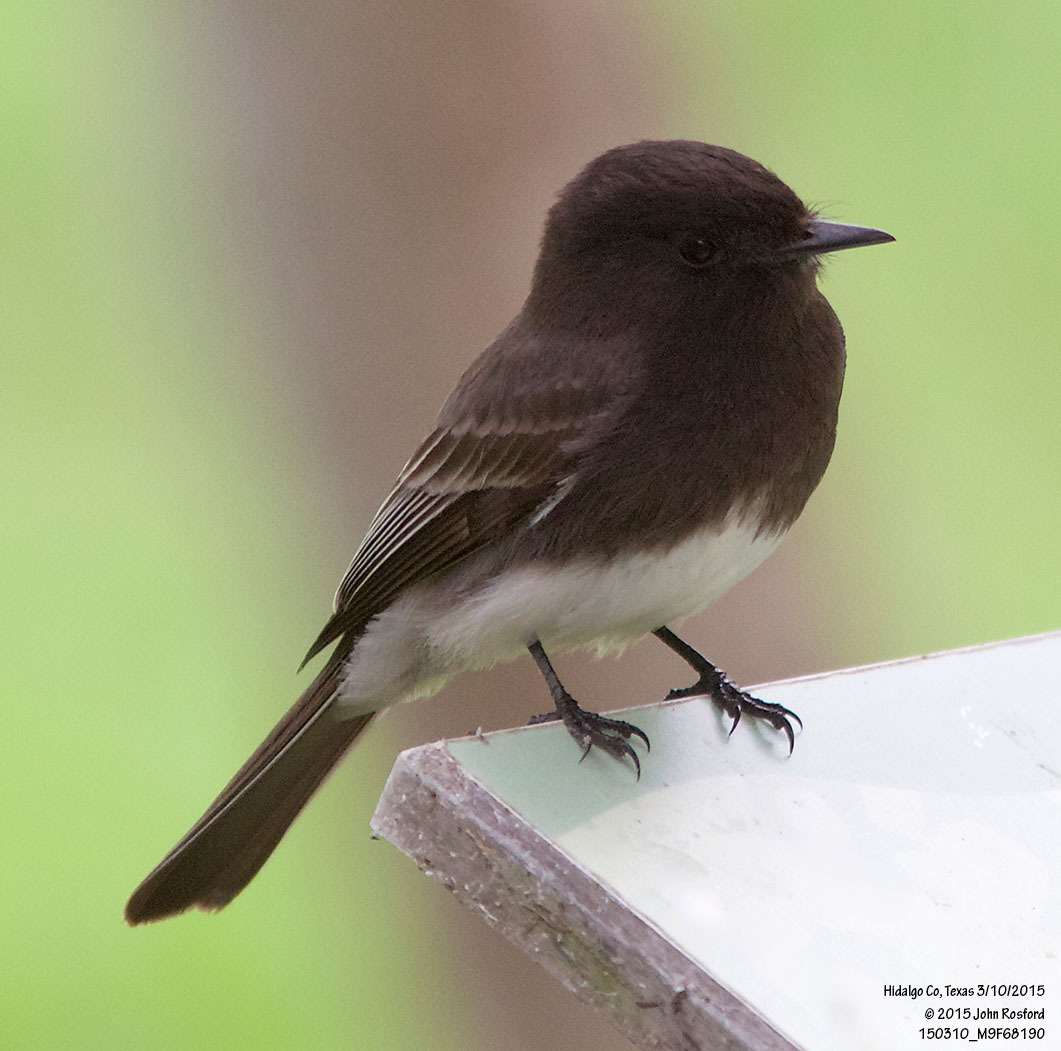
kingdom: Animalia
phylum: Chordata
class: Aves
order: Passeriformes
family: Tyrannidae
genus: Sayornis
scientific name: Sayornis nigricans
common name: Black phoebe
